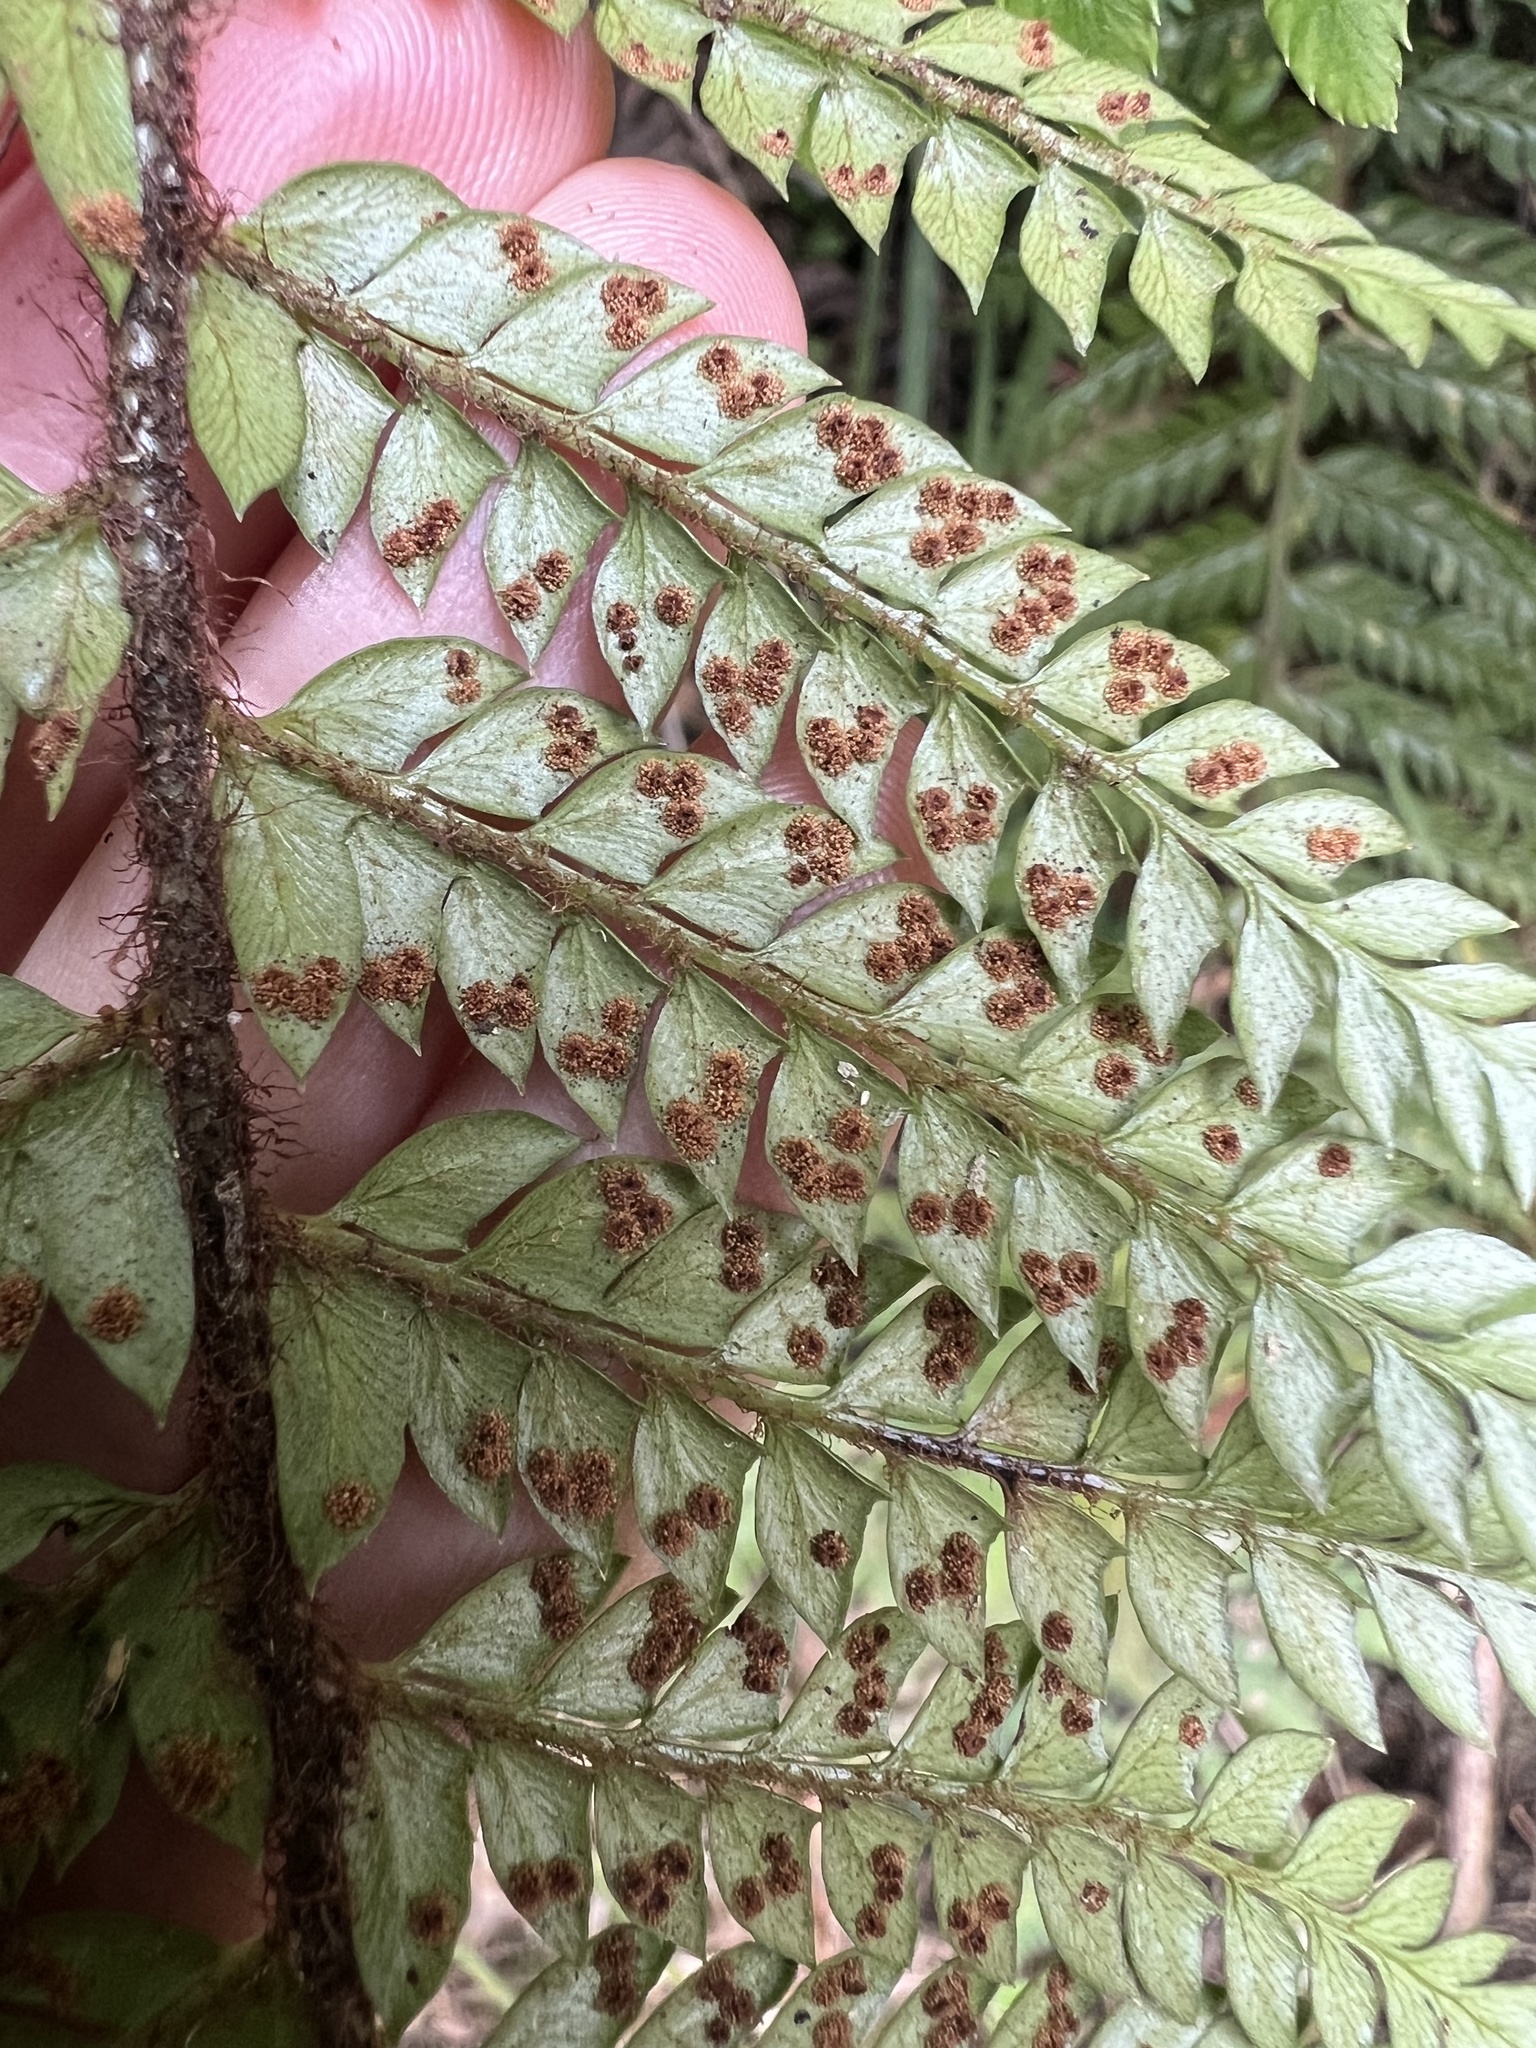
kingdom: Plantae
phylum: Tracheophyta
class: Polypodiopsida
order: Polypodiales
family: Dryopteridaceae
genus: Polystichum
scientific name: Polystichum squarrosum
